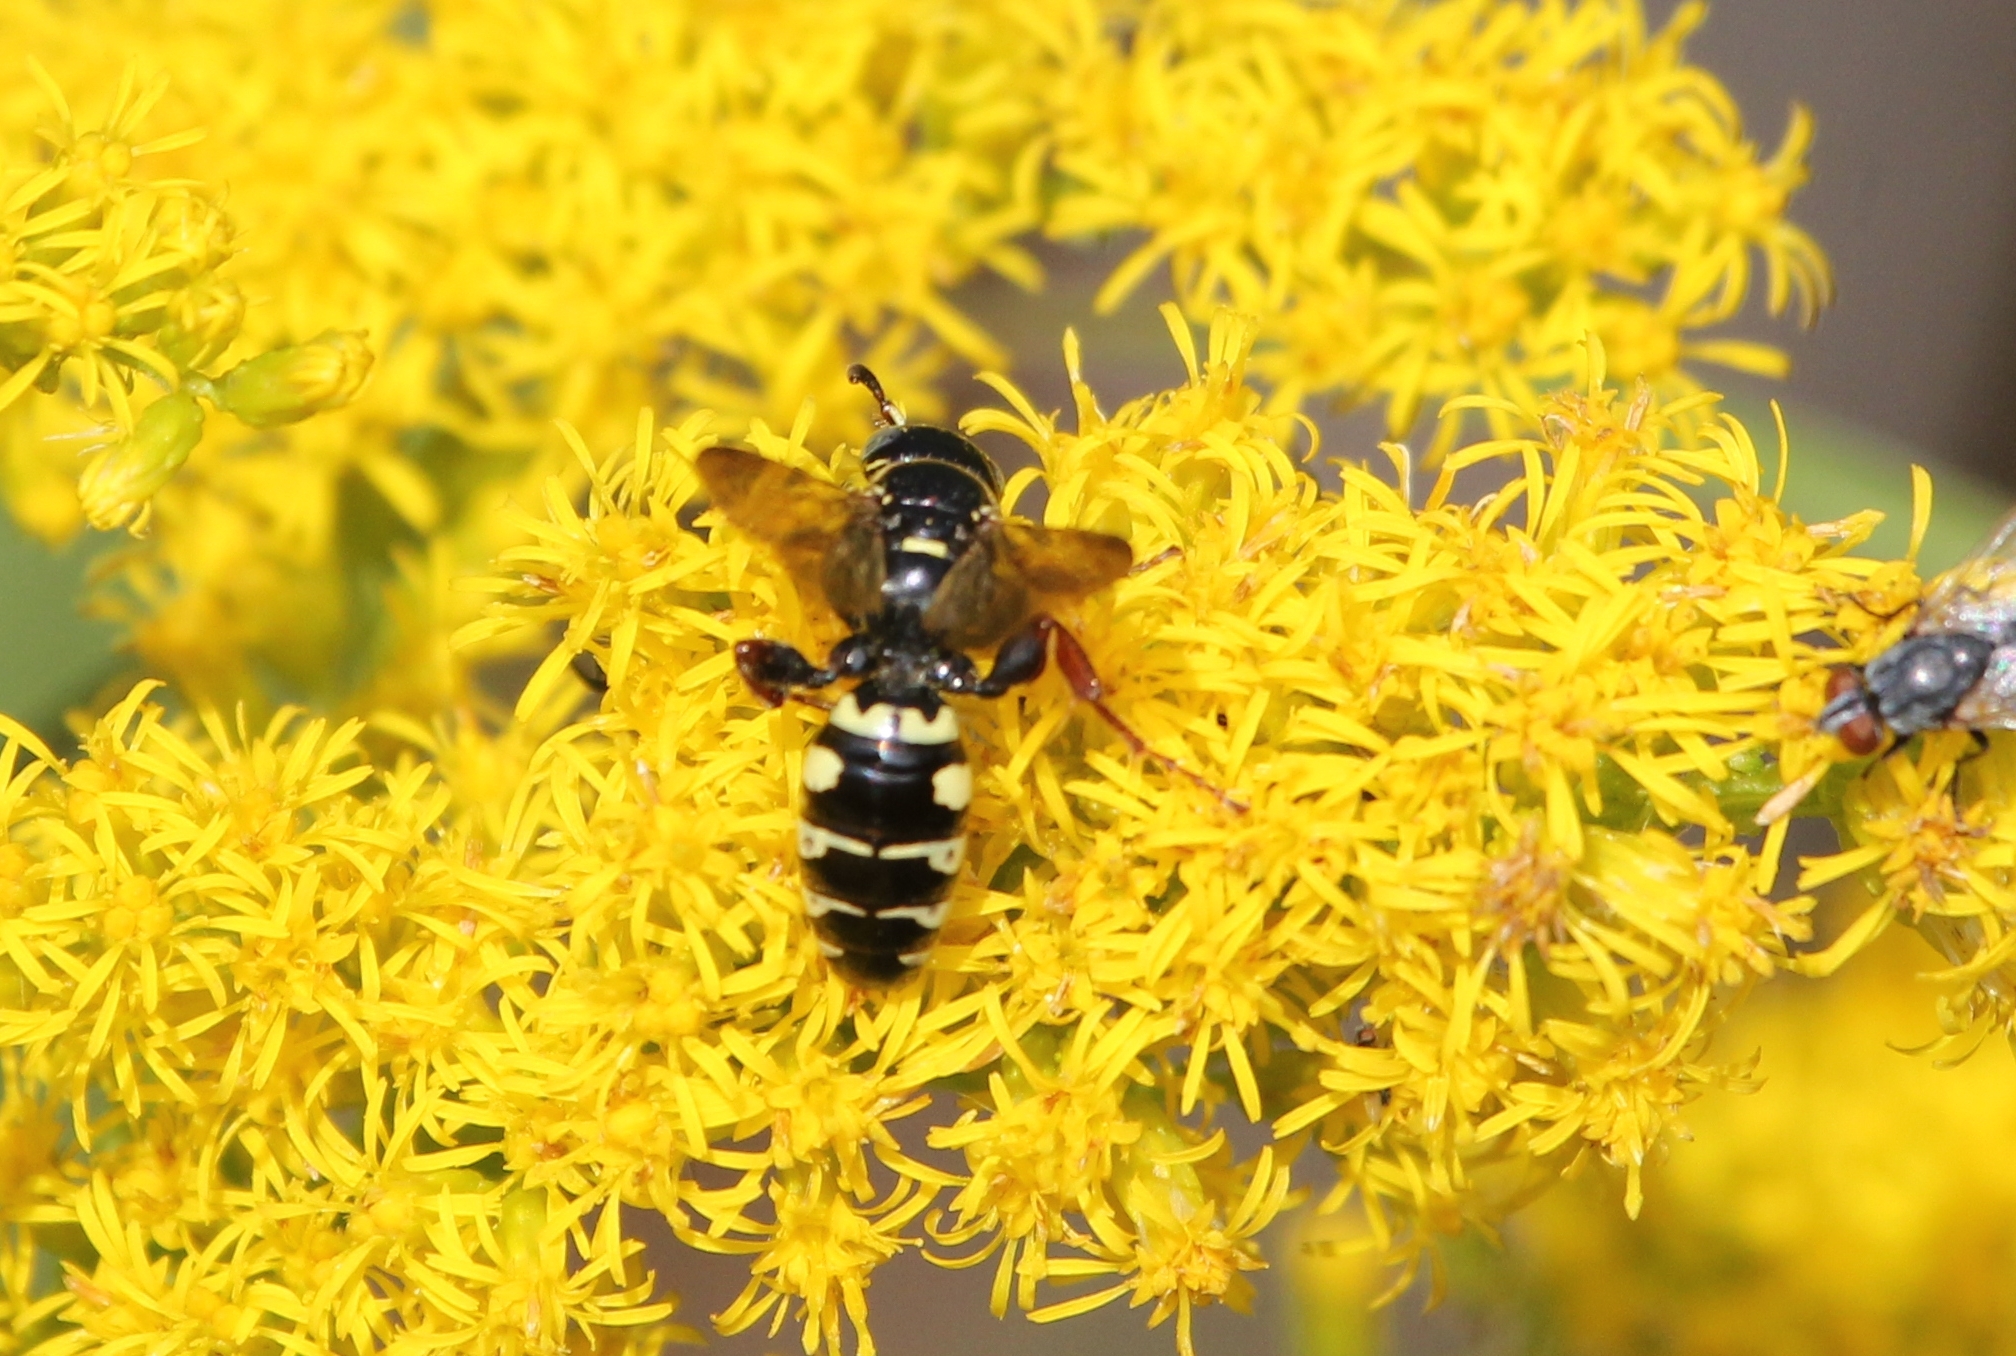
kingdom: Animalia
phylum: Arthropoda
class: Insecta
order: Hymenoptera
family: Tiphiidae
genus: Myzinum
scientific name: Myzinum carolinianum
